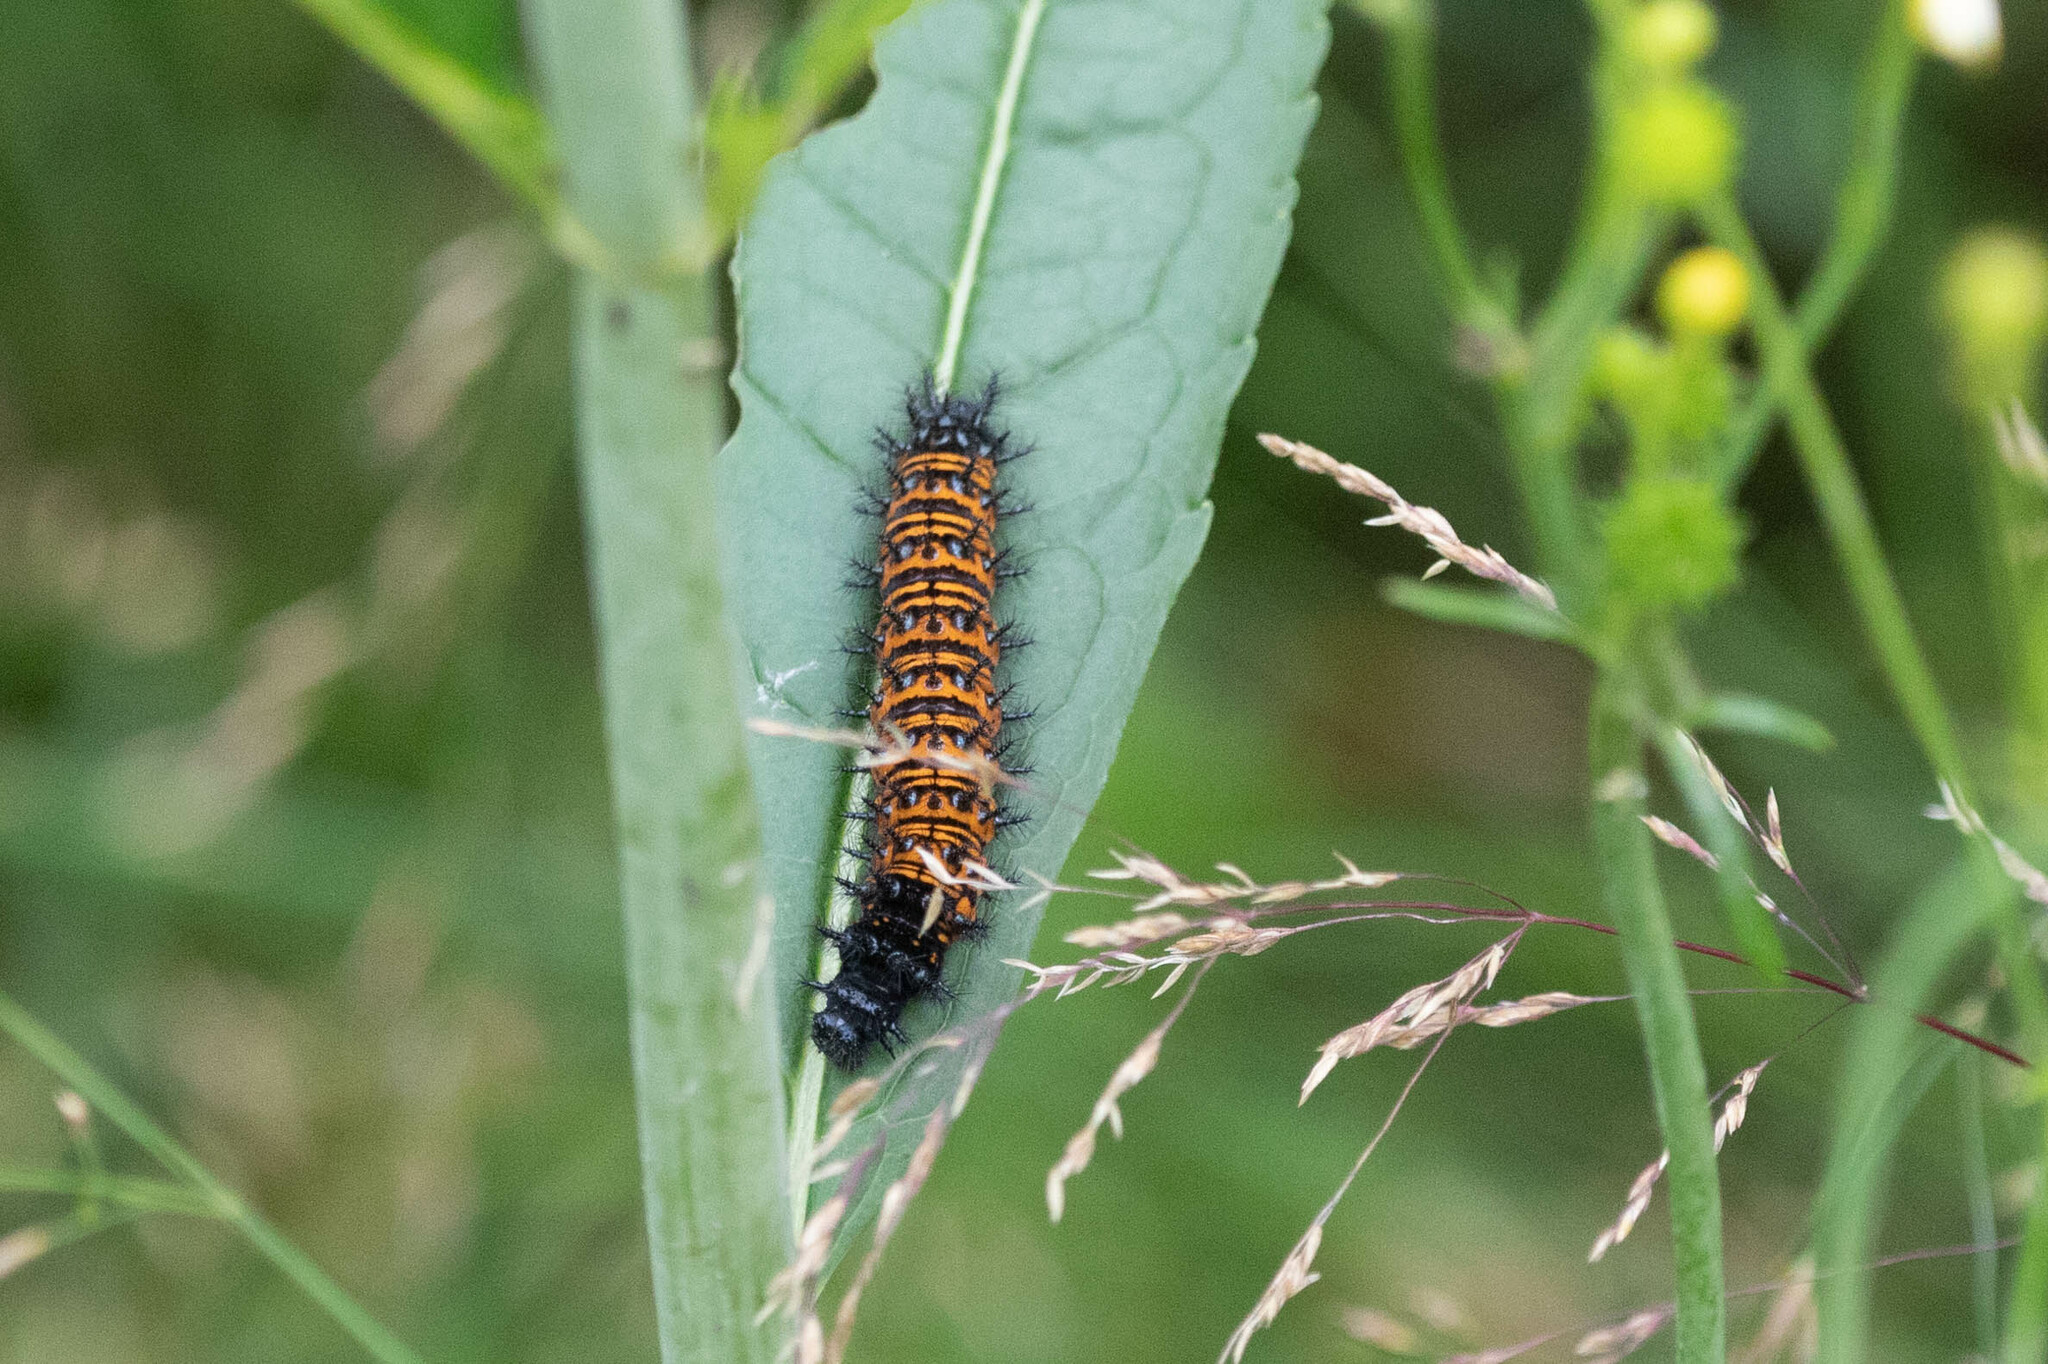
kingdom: Animalia
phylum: Arthropoda
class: Insecta
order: Lepidoptera
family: Nymphalidae
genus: Euphydryas
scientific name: Euphydryas phaeton
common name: Baltimore checkerspot
